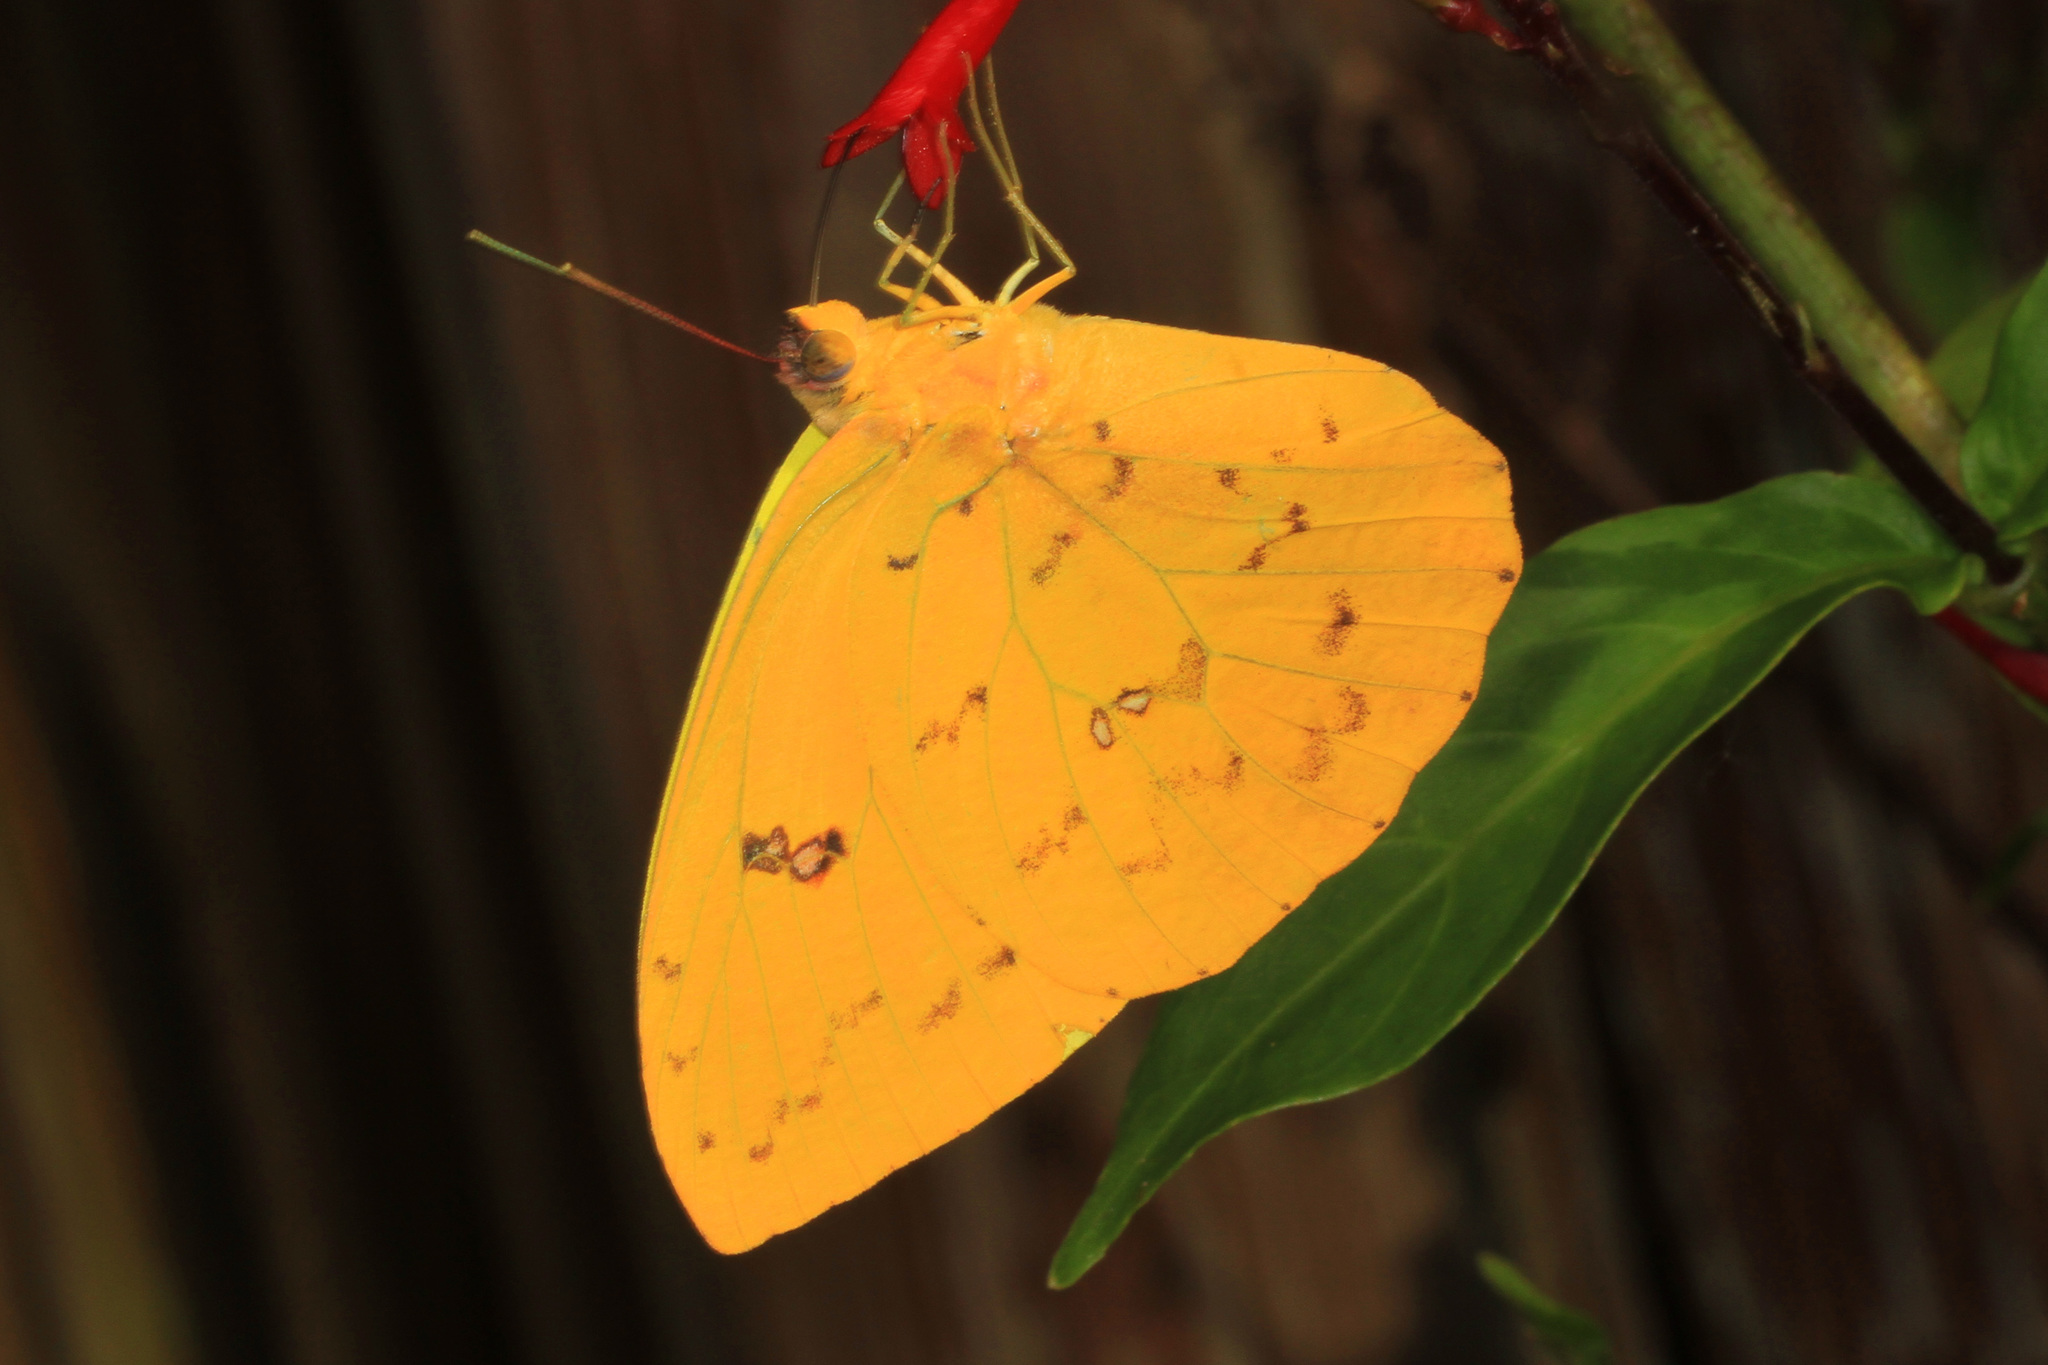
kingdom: Animalia
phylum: Arthropoda
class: Insecta
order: Lepidoptera
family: Pieridae
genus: Phoebis
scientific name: Phoebis philea
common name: Orange-barred giant sulphur
